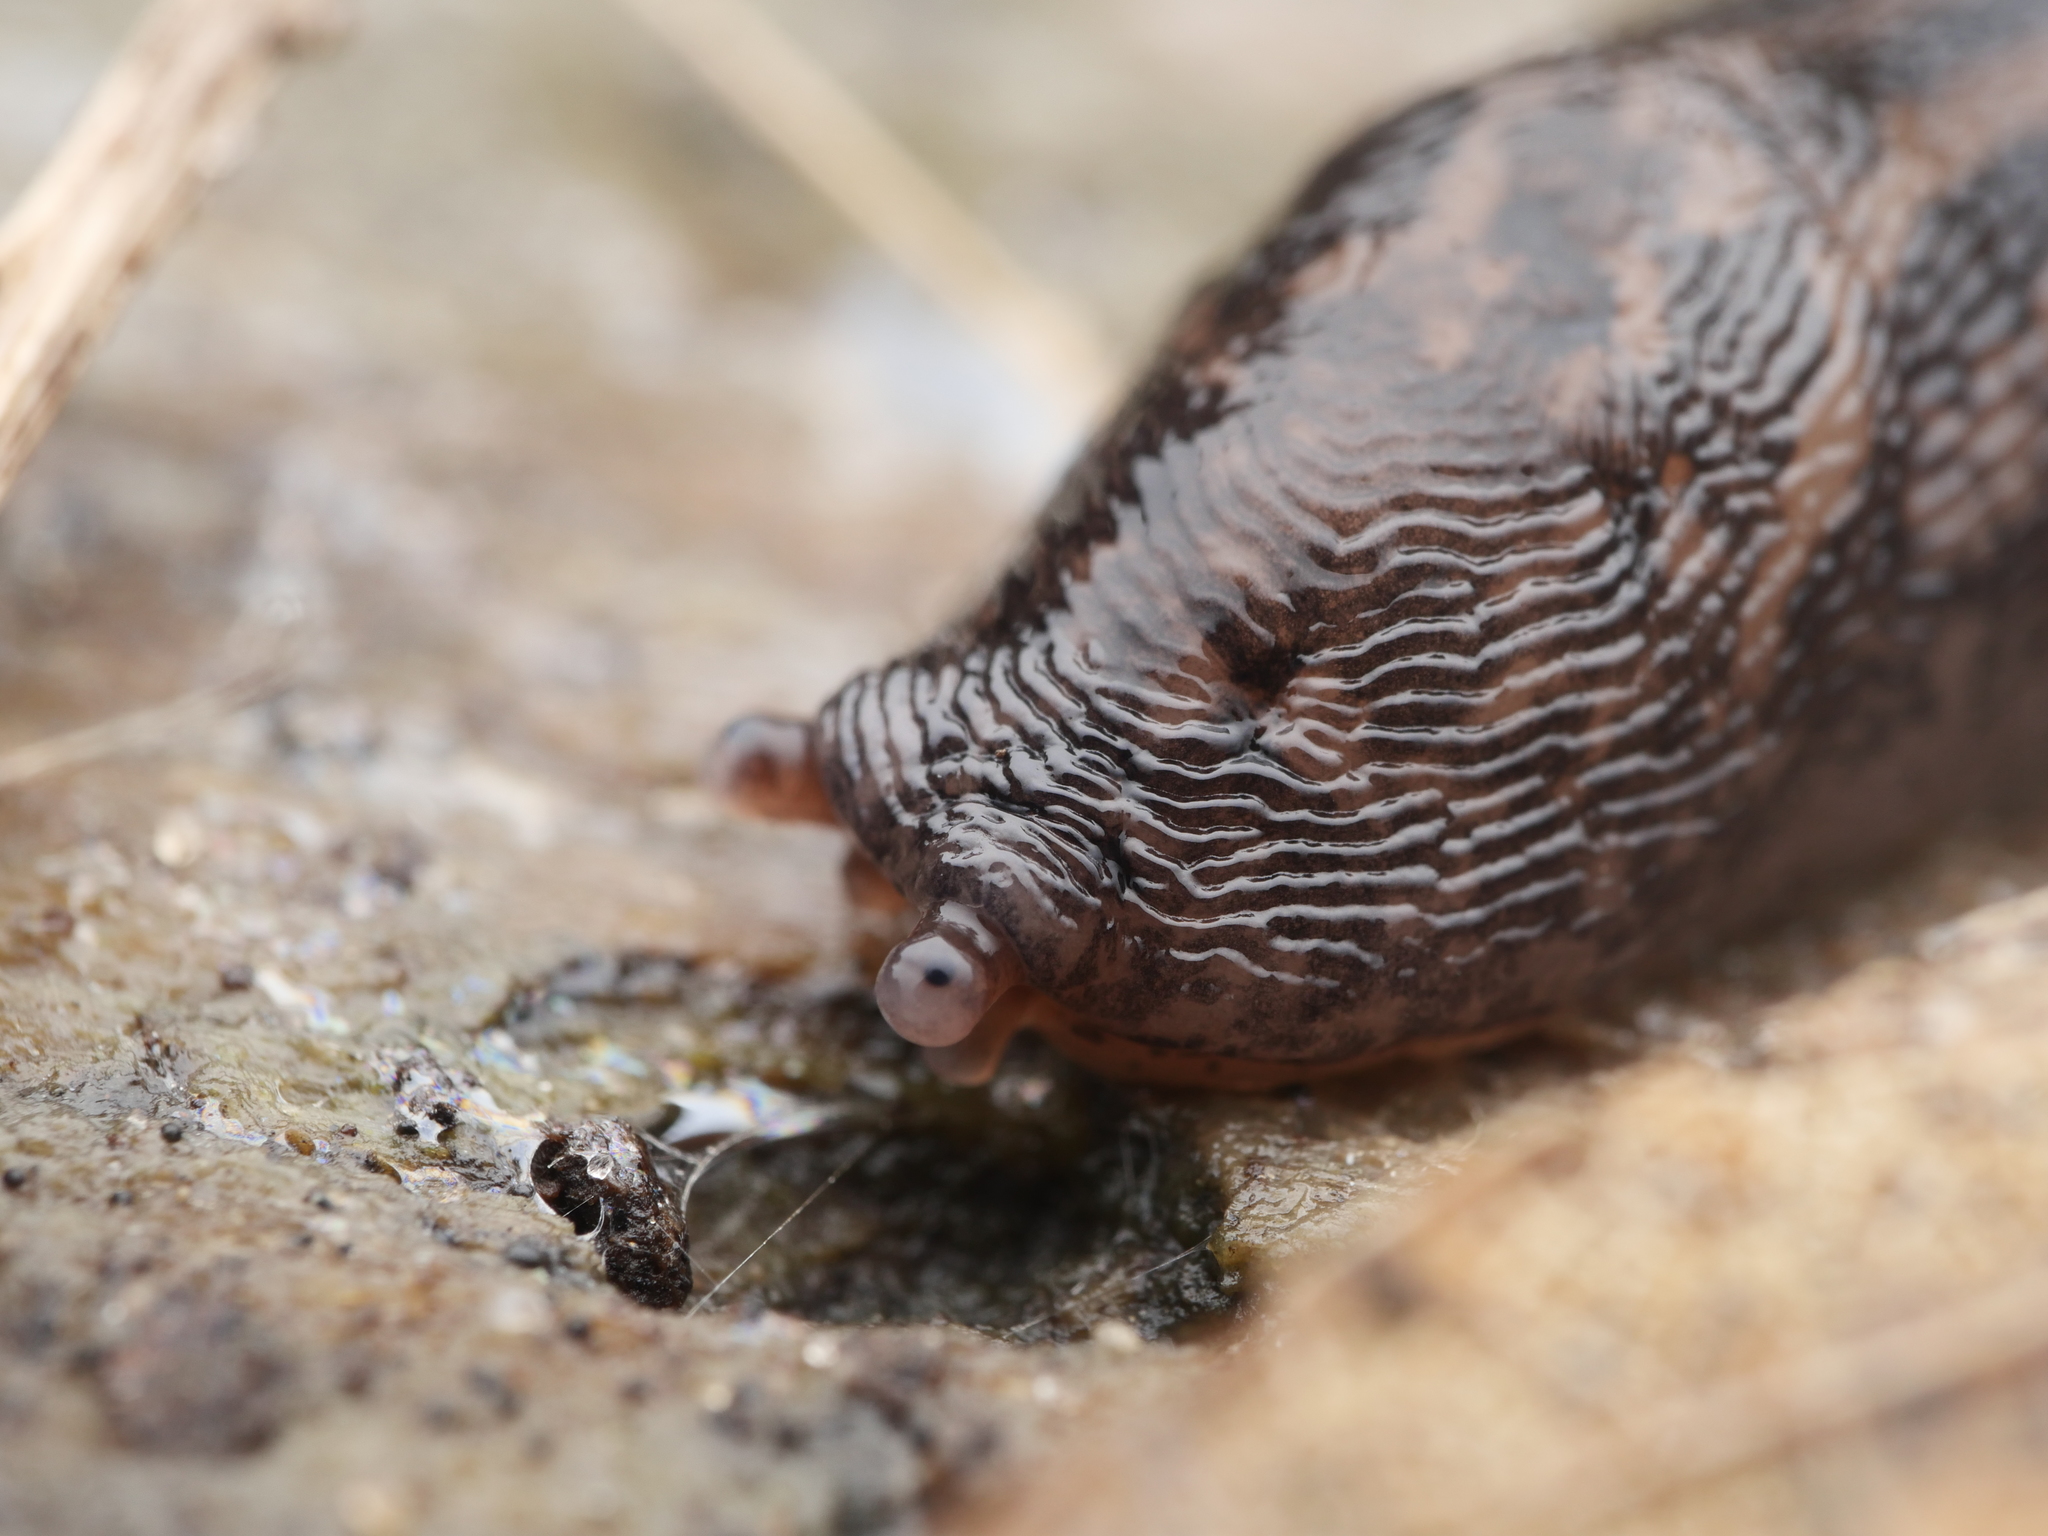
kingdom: Animalia
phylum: Mollusca
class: Gastropoda
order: Stylommatophora
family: Limacidae
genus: Limax
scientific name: Limax maximus
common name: Great grey slug
